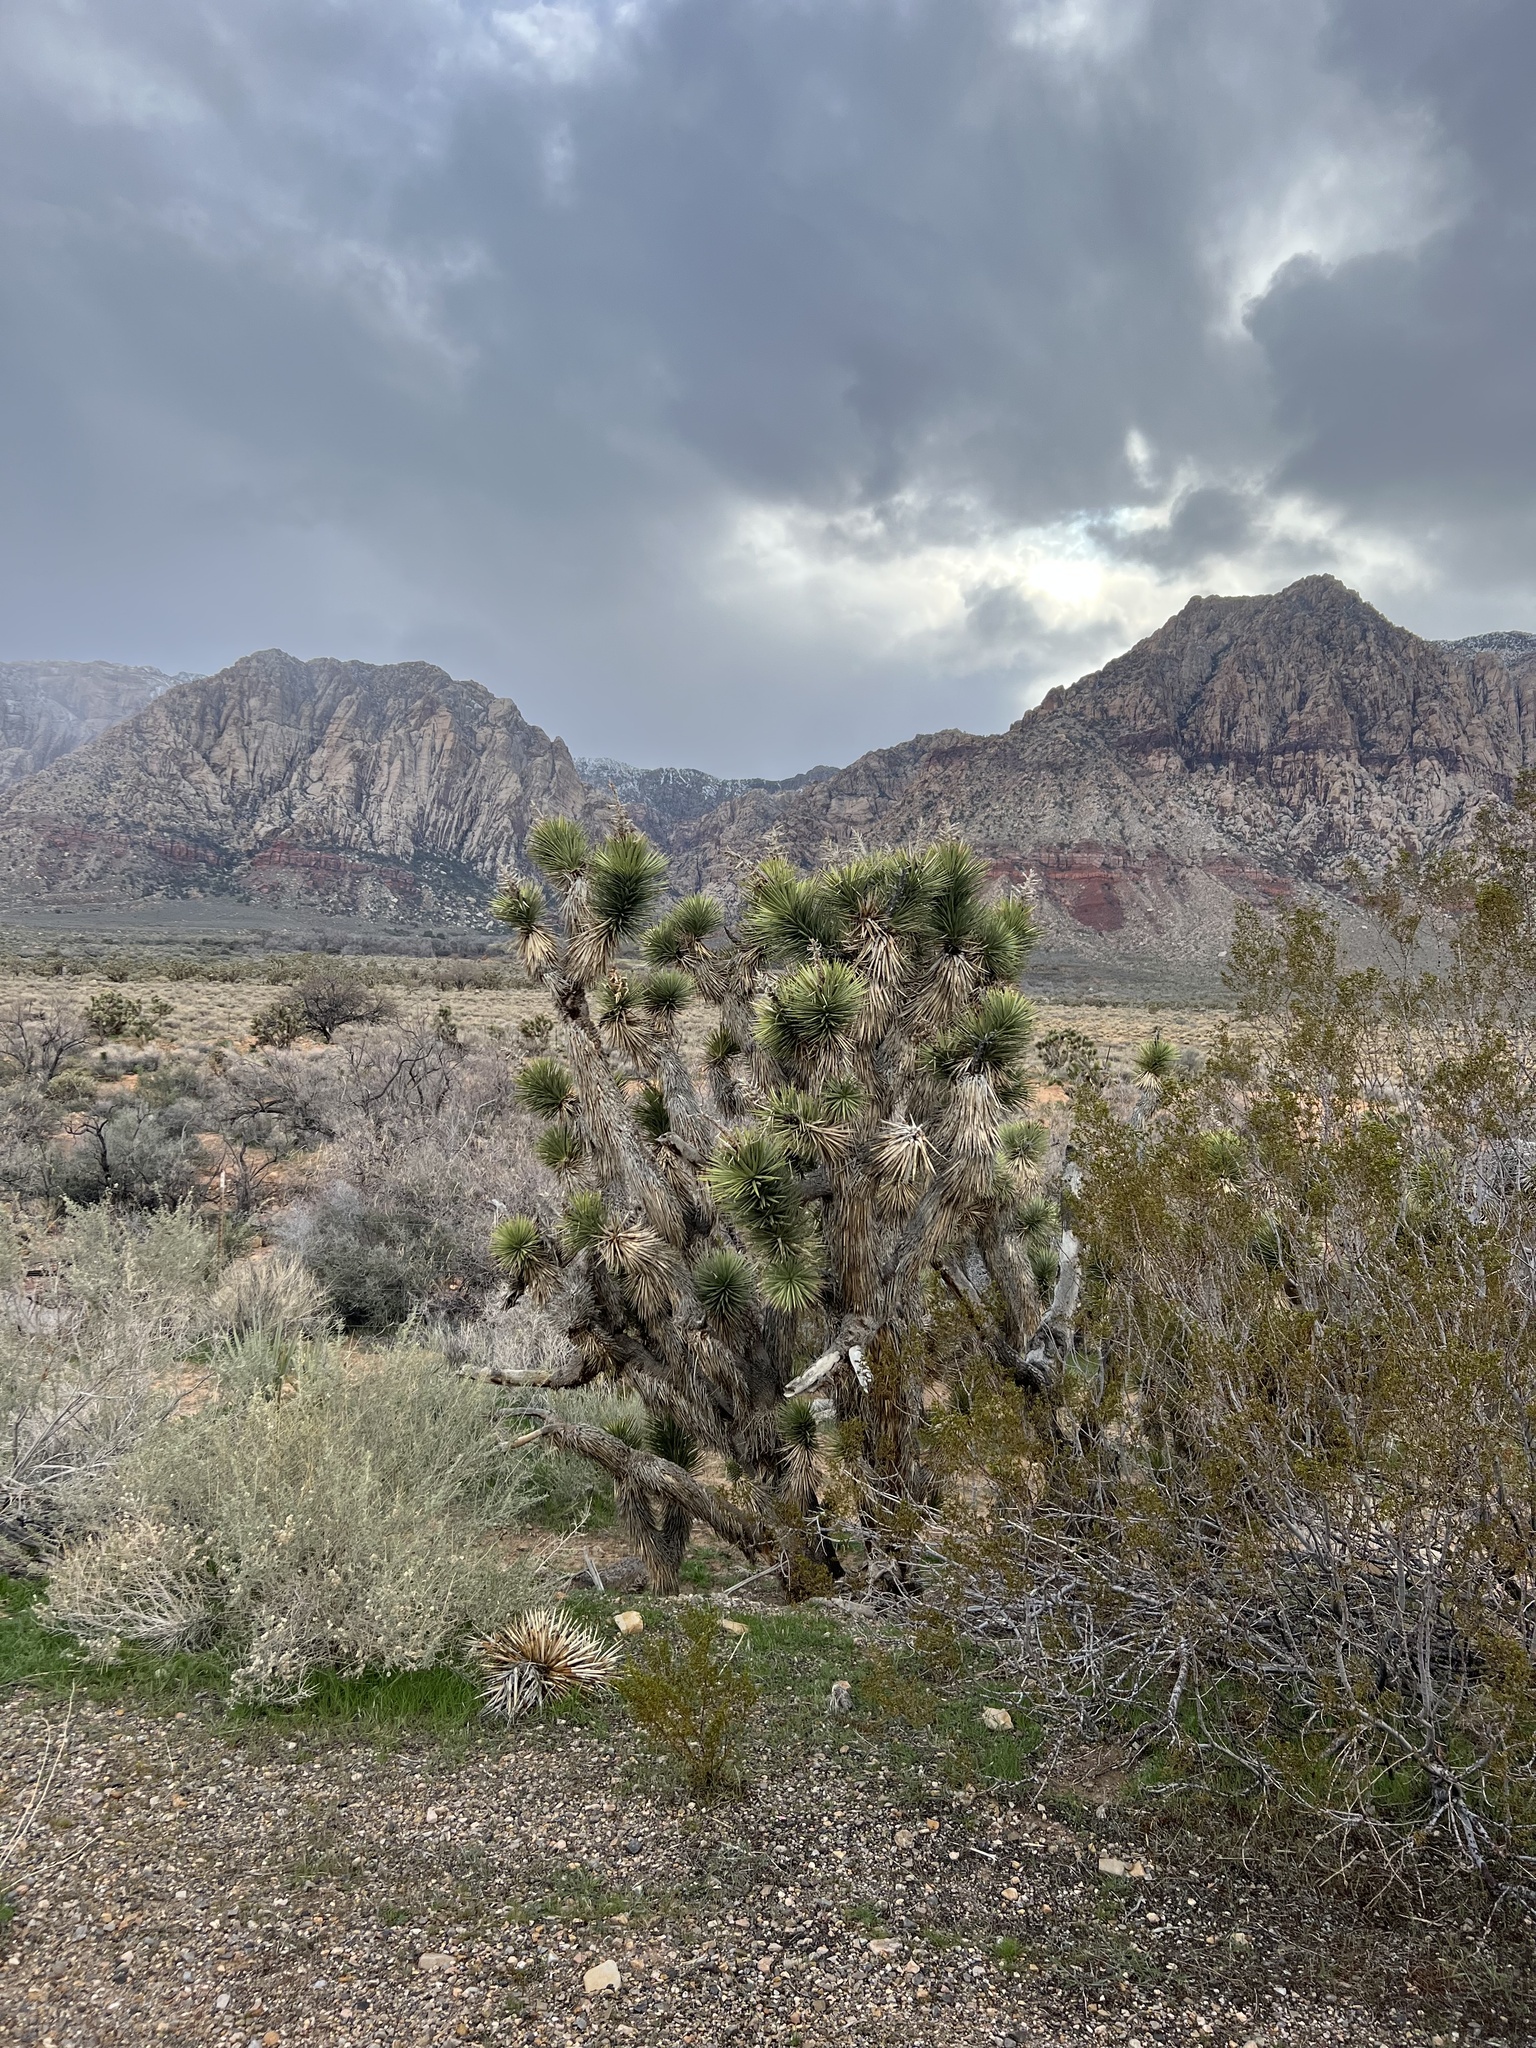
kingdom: Plantae
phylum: Tracheophyta
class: Liliopsida
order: Asparagales
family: Asparagaceae
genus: Yucca
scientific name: Yucca brevifolia
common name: Joshua tree
